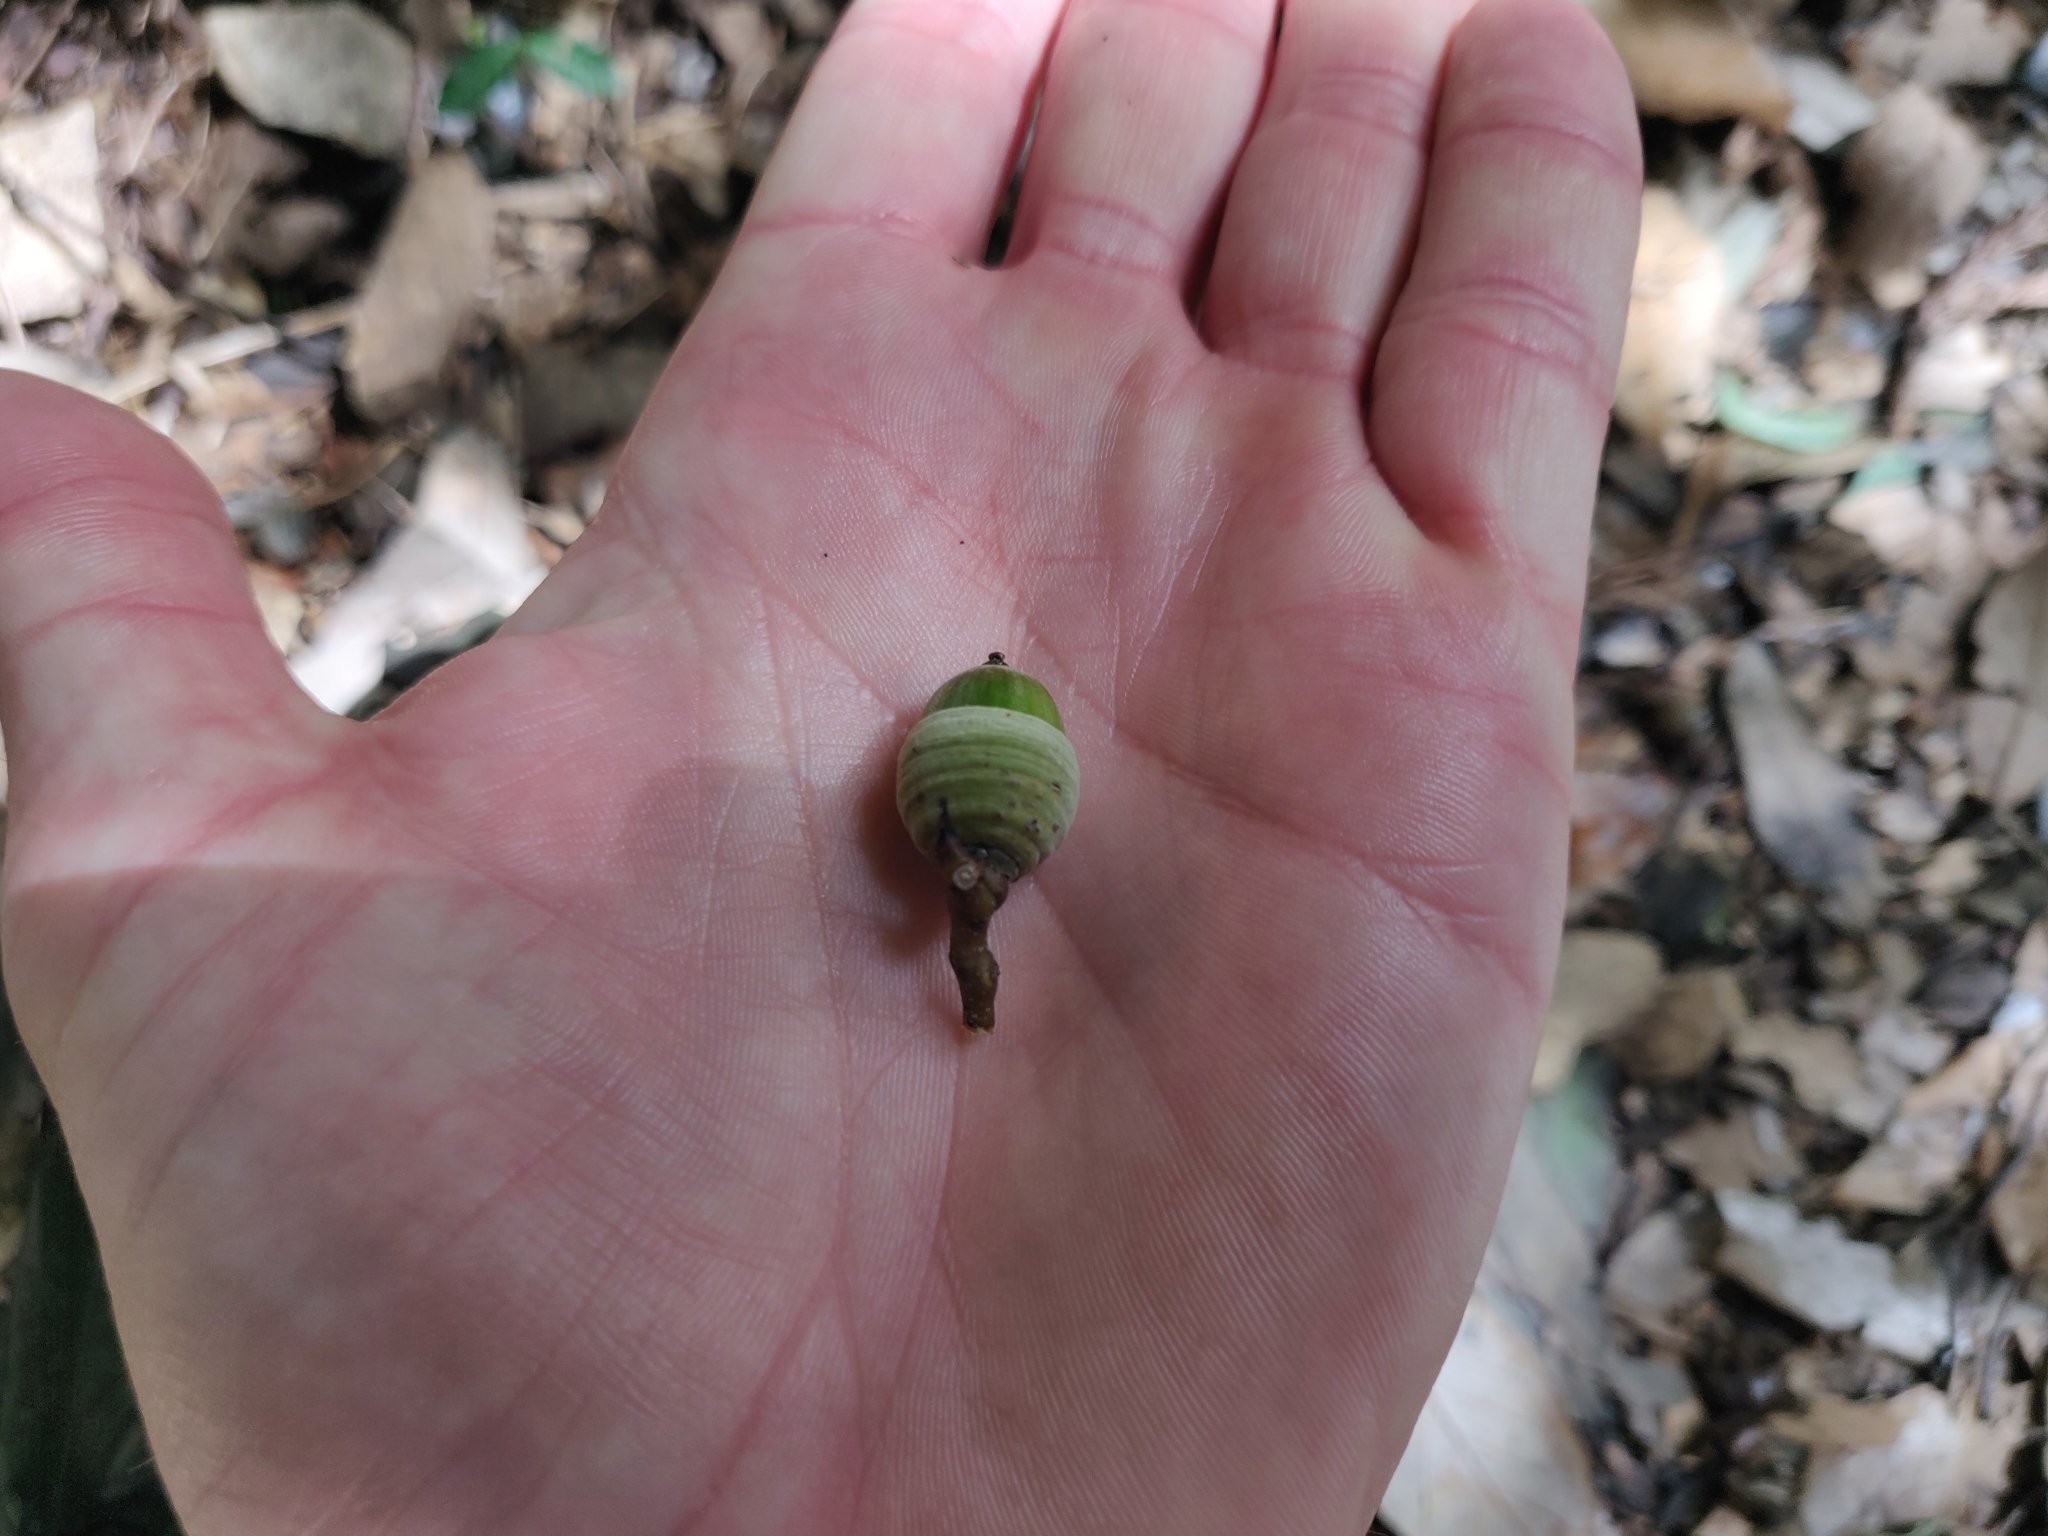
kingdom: Plantae
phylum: Tracheophyta
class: Magnoliopsida
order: Fagales
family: Fagaceae
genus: Quercus
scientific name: Quercus myrsinifolia
